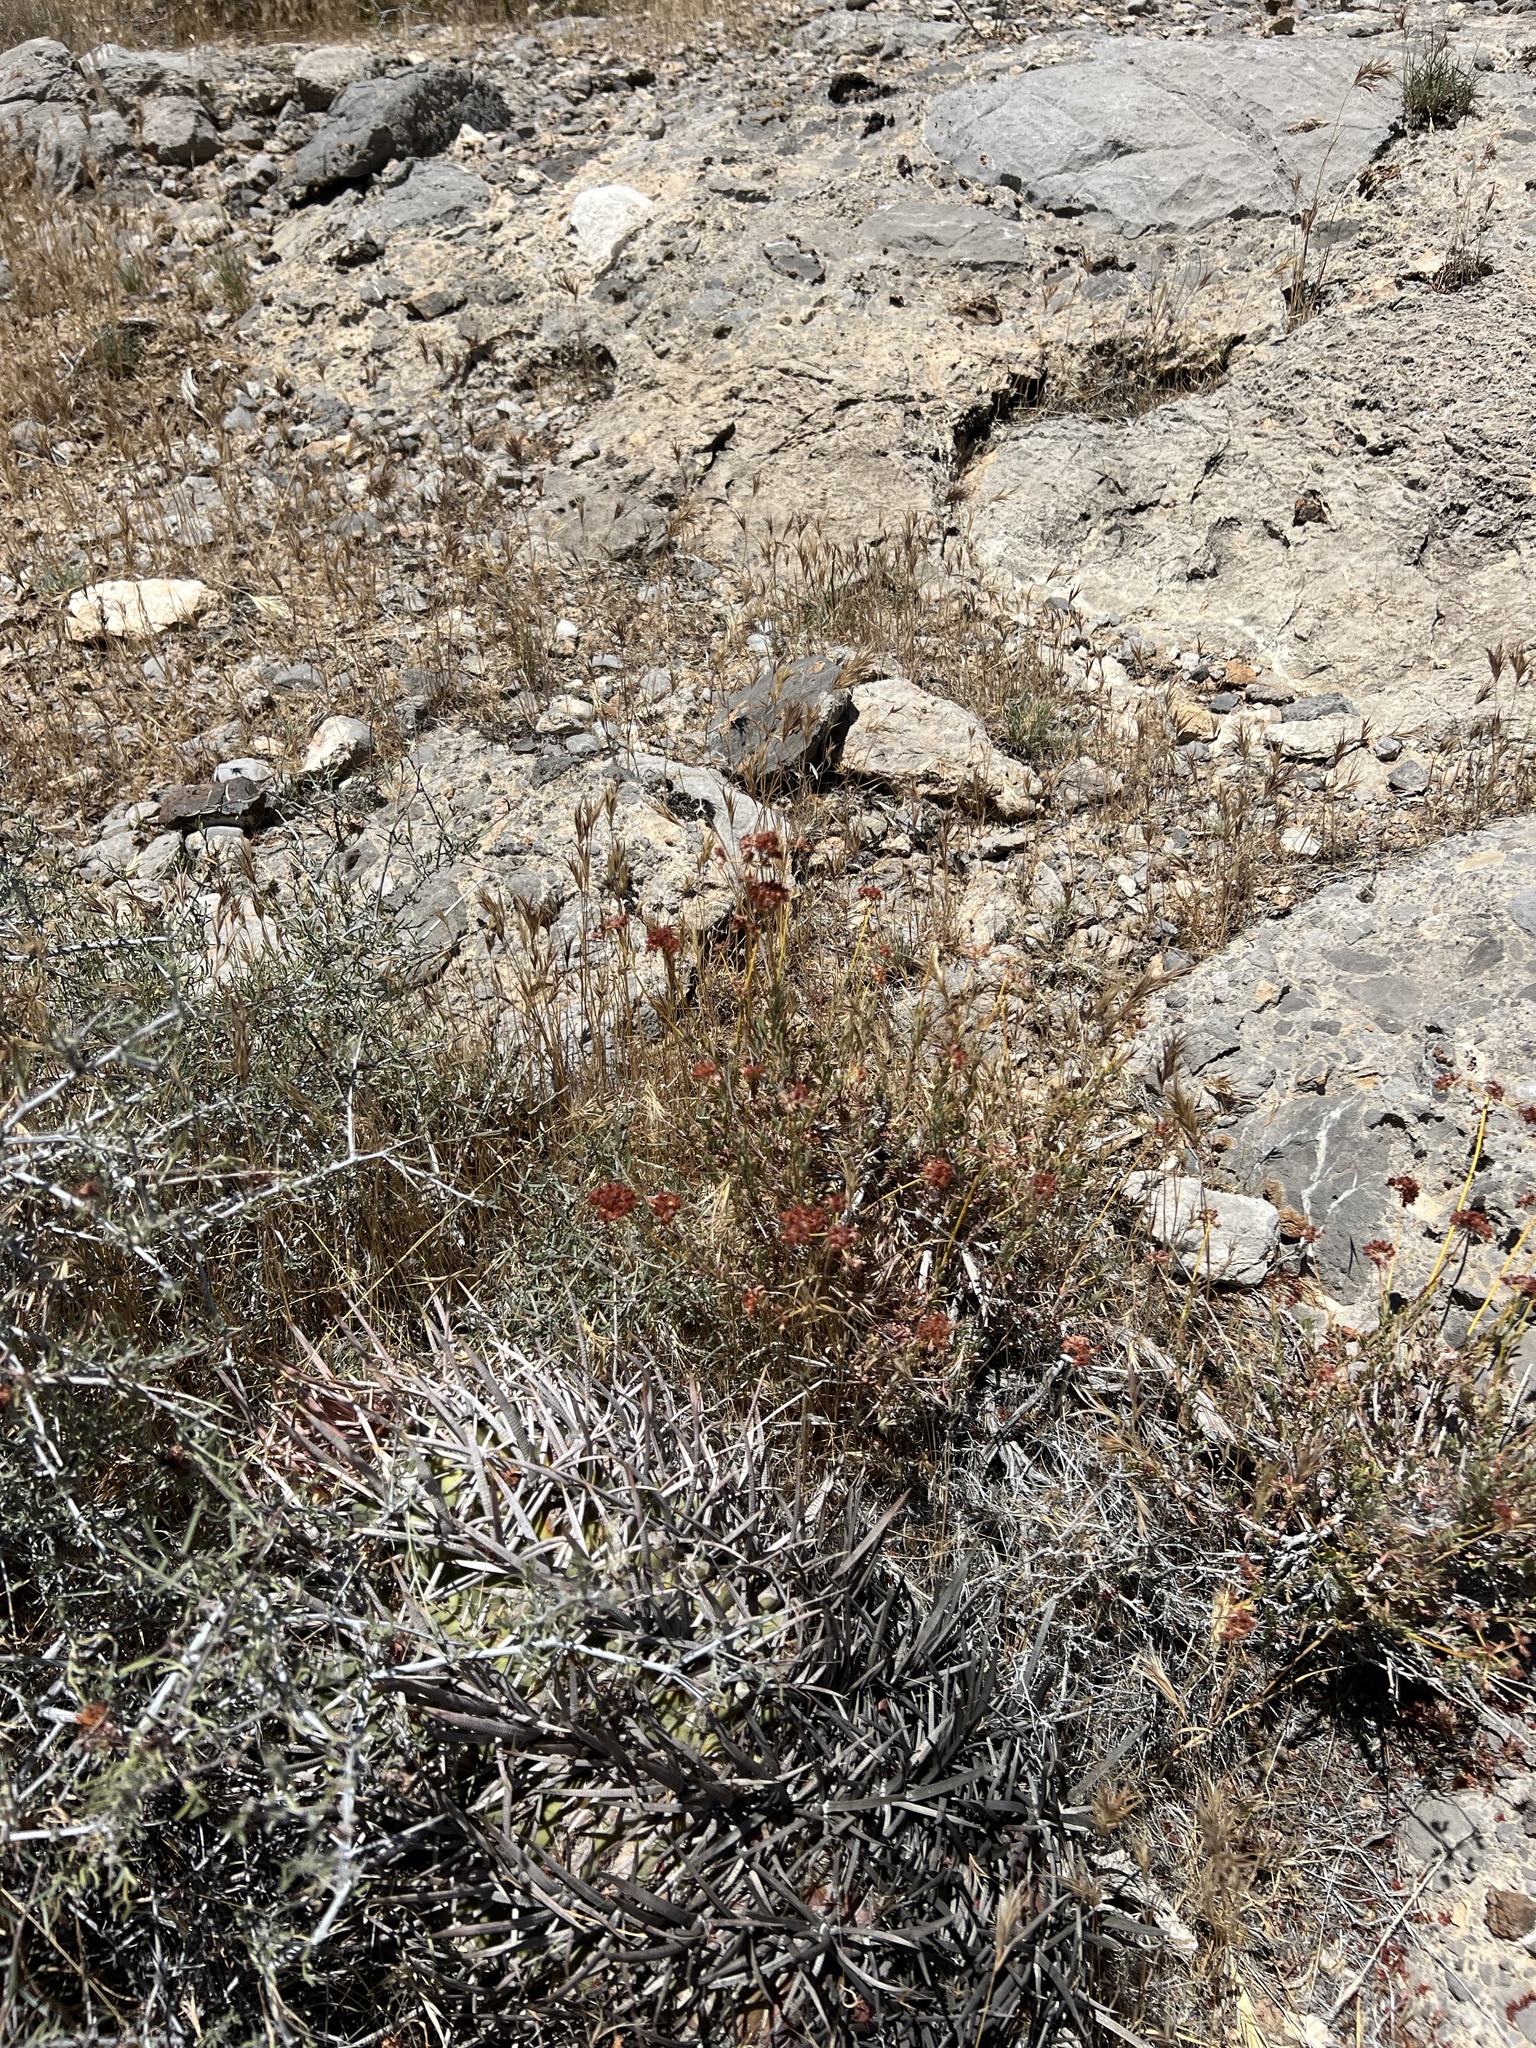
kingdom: Plantae
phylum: Tracheophyta
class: Magnoliopsida
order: Caryophyllales
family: Polygonaceae
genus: Eriogonum
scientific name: Eriogonum fasciculatum
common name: California wild buckwheat
